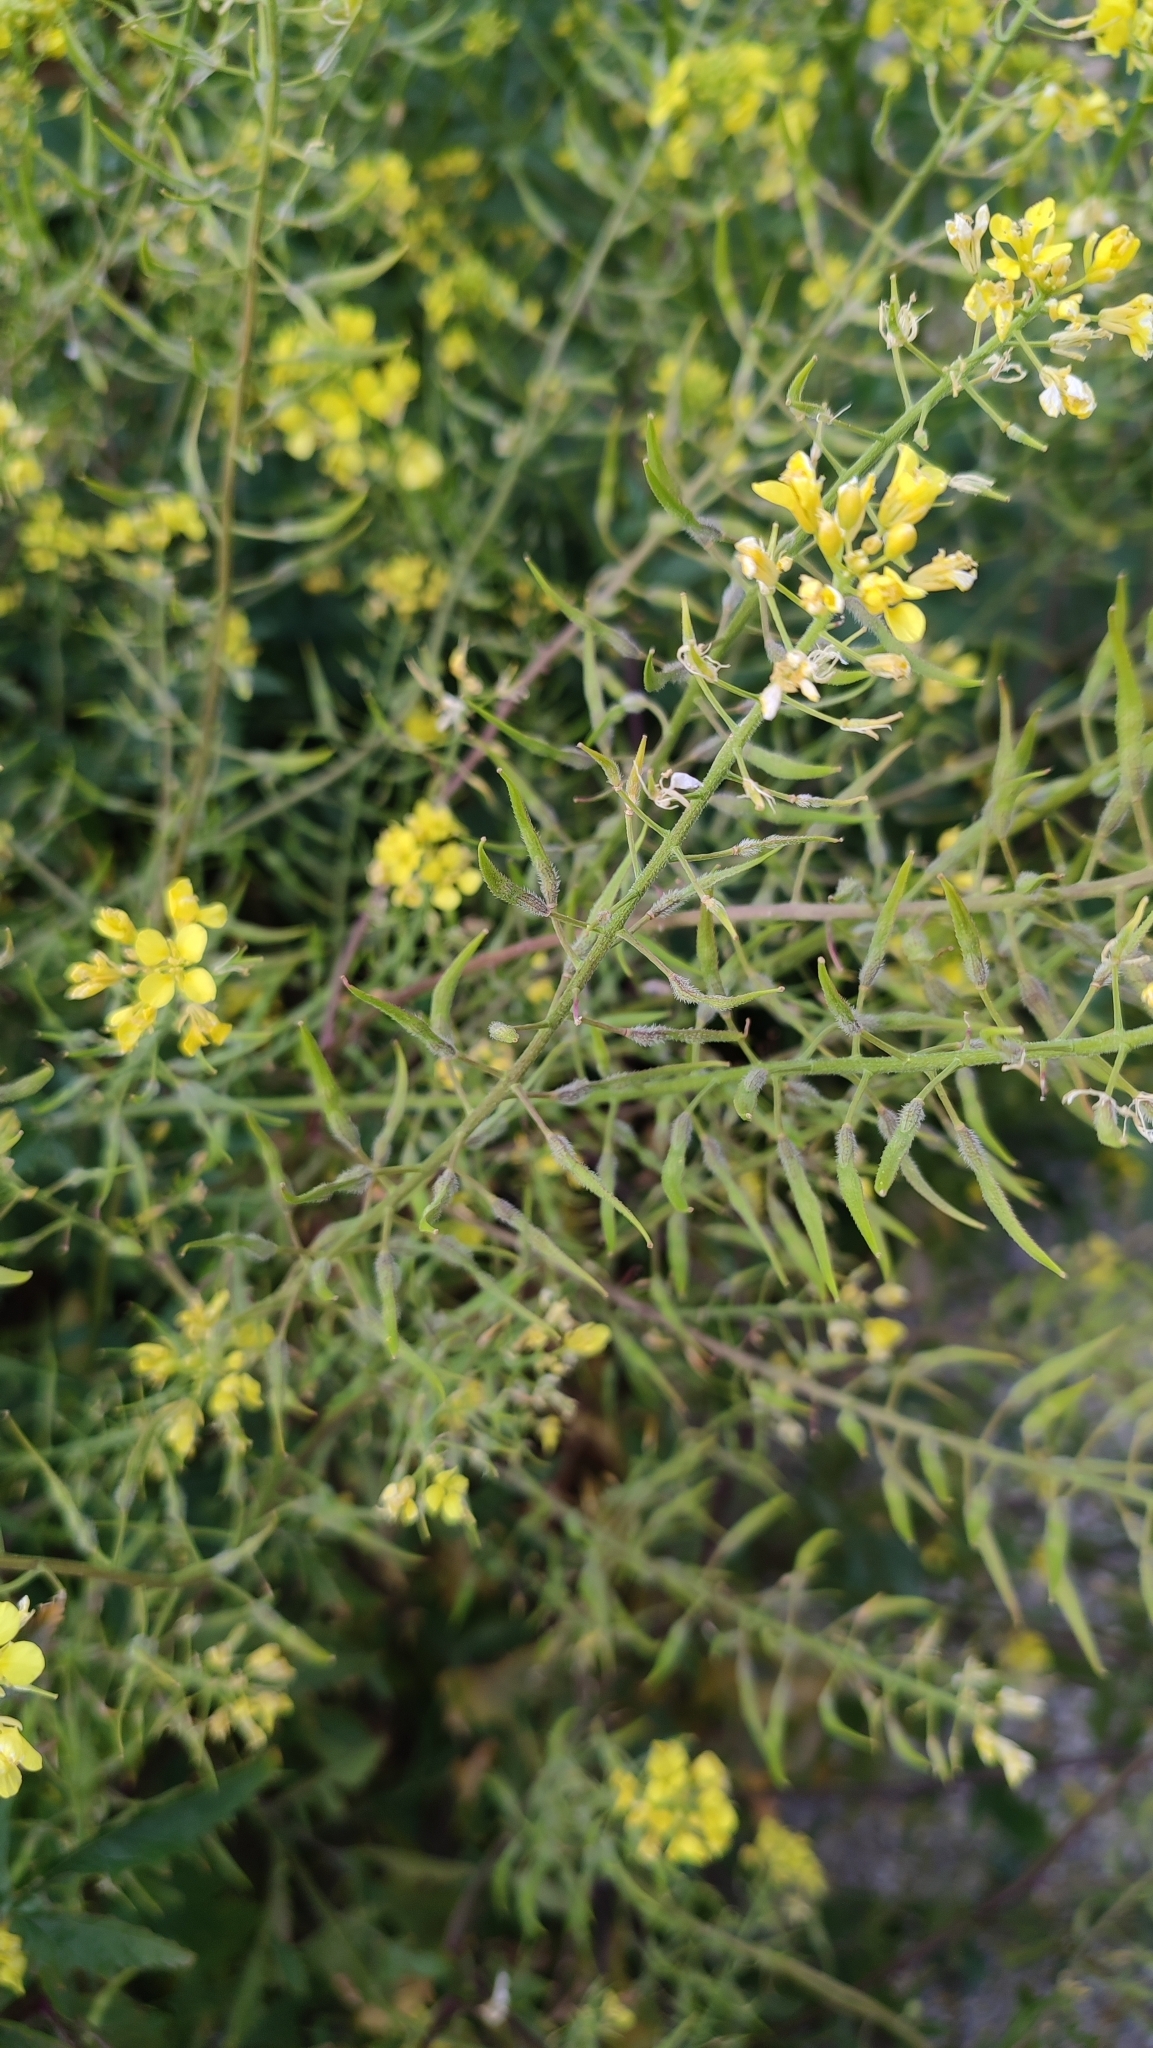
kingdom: Plantae
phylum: Tracheophyta
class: Magnoliopsida
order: Brassicales
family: Brassicaceae
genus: Sinapis
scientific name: Sinapis alba
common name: White mustard
